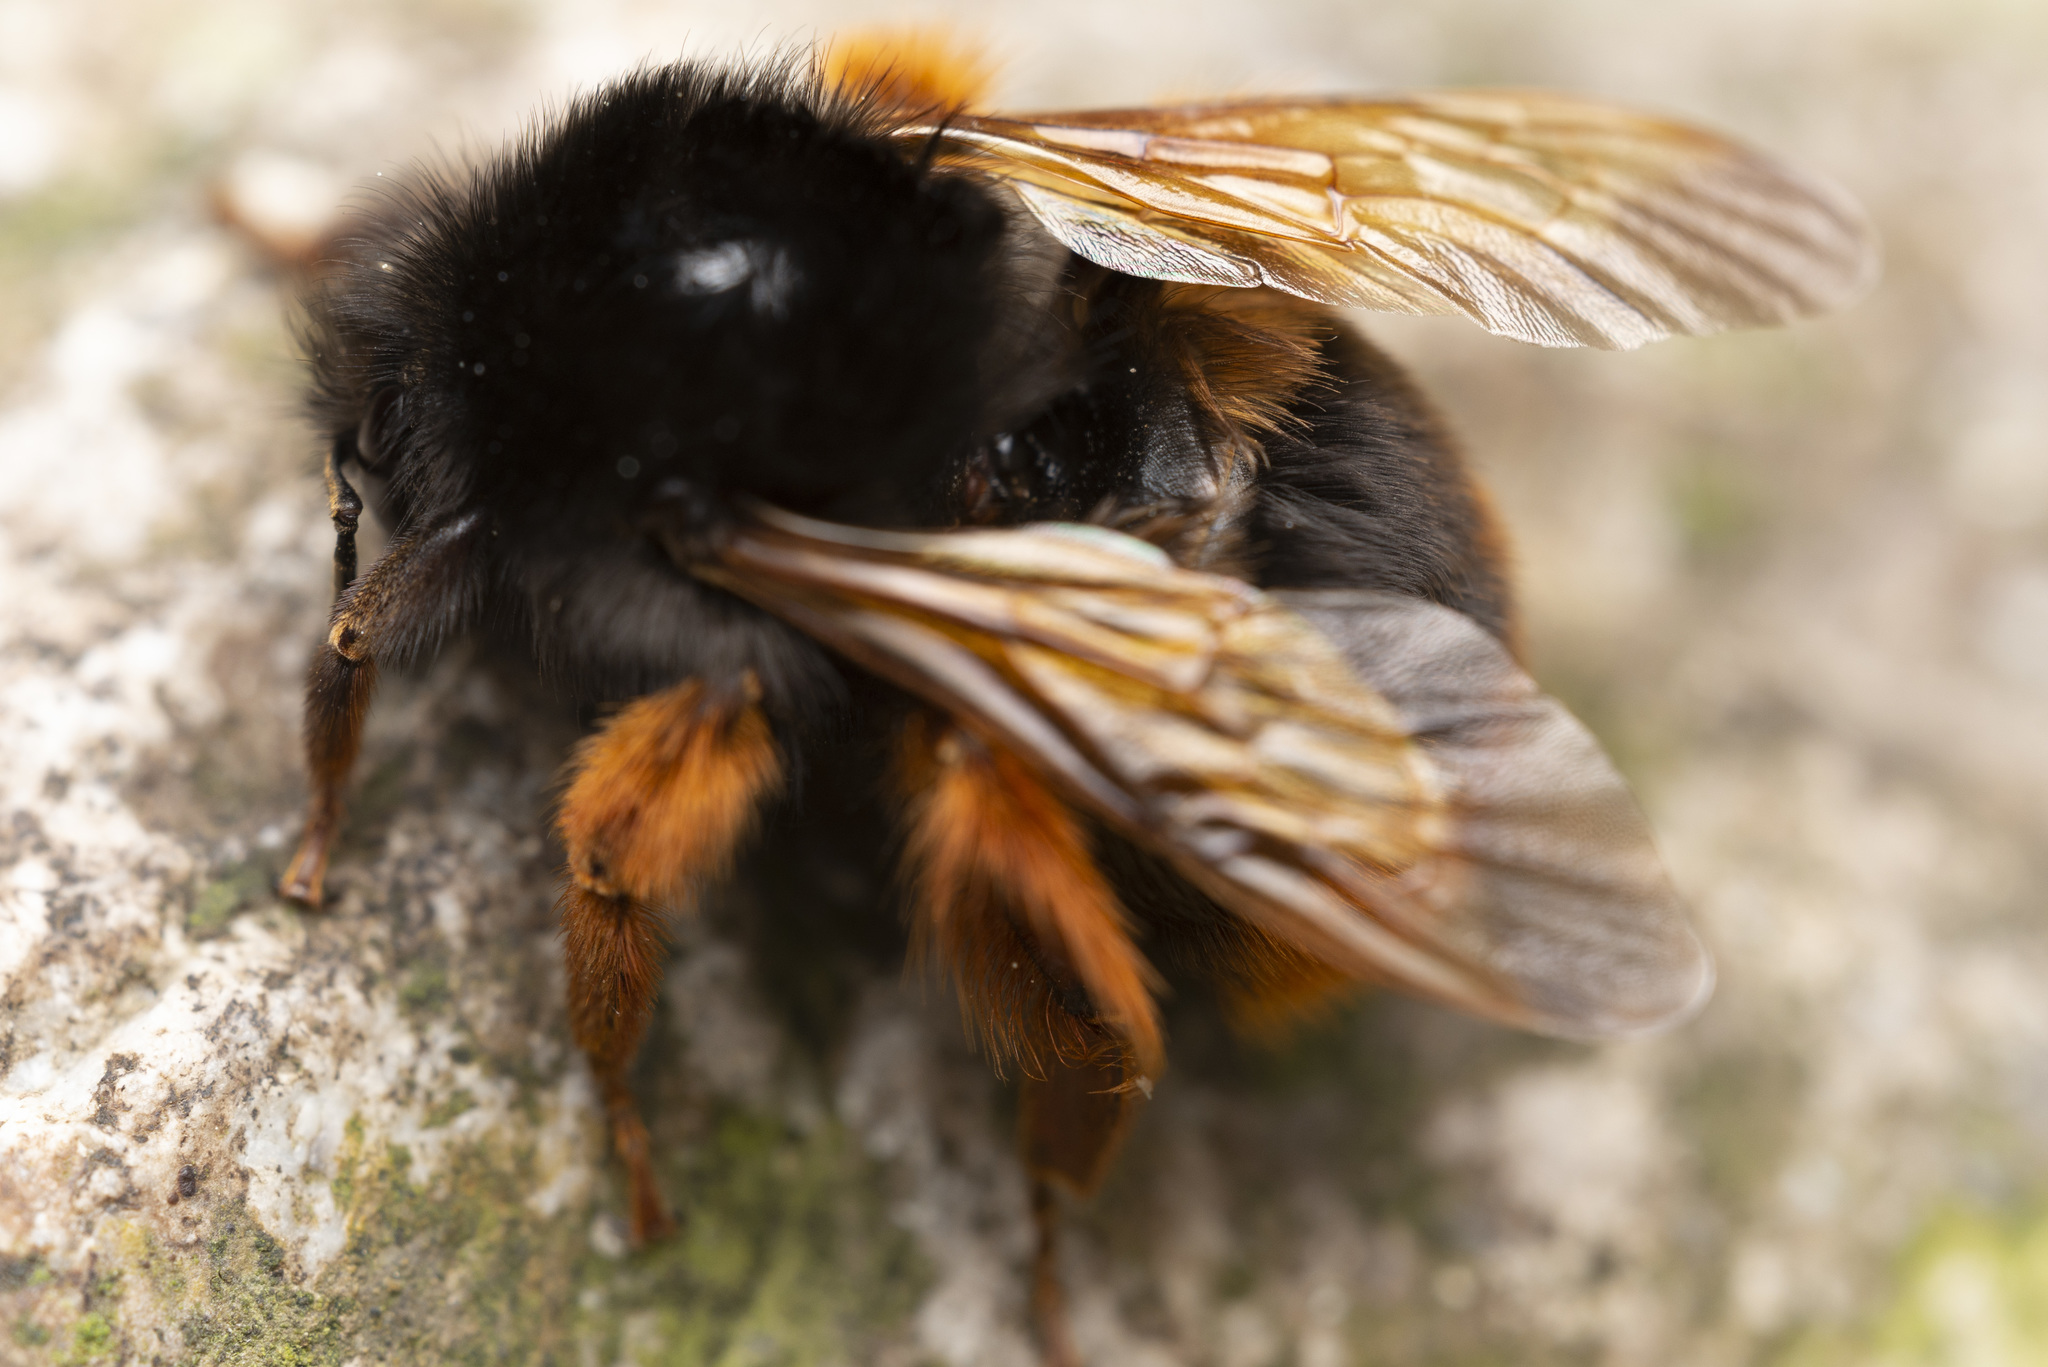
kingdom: Animalia
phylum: Arthropoda
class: Insecta
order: Hymenoptera
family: Apidae
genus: Bombus
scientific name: Bombus eximius
